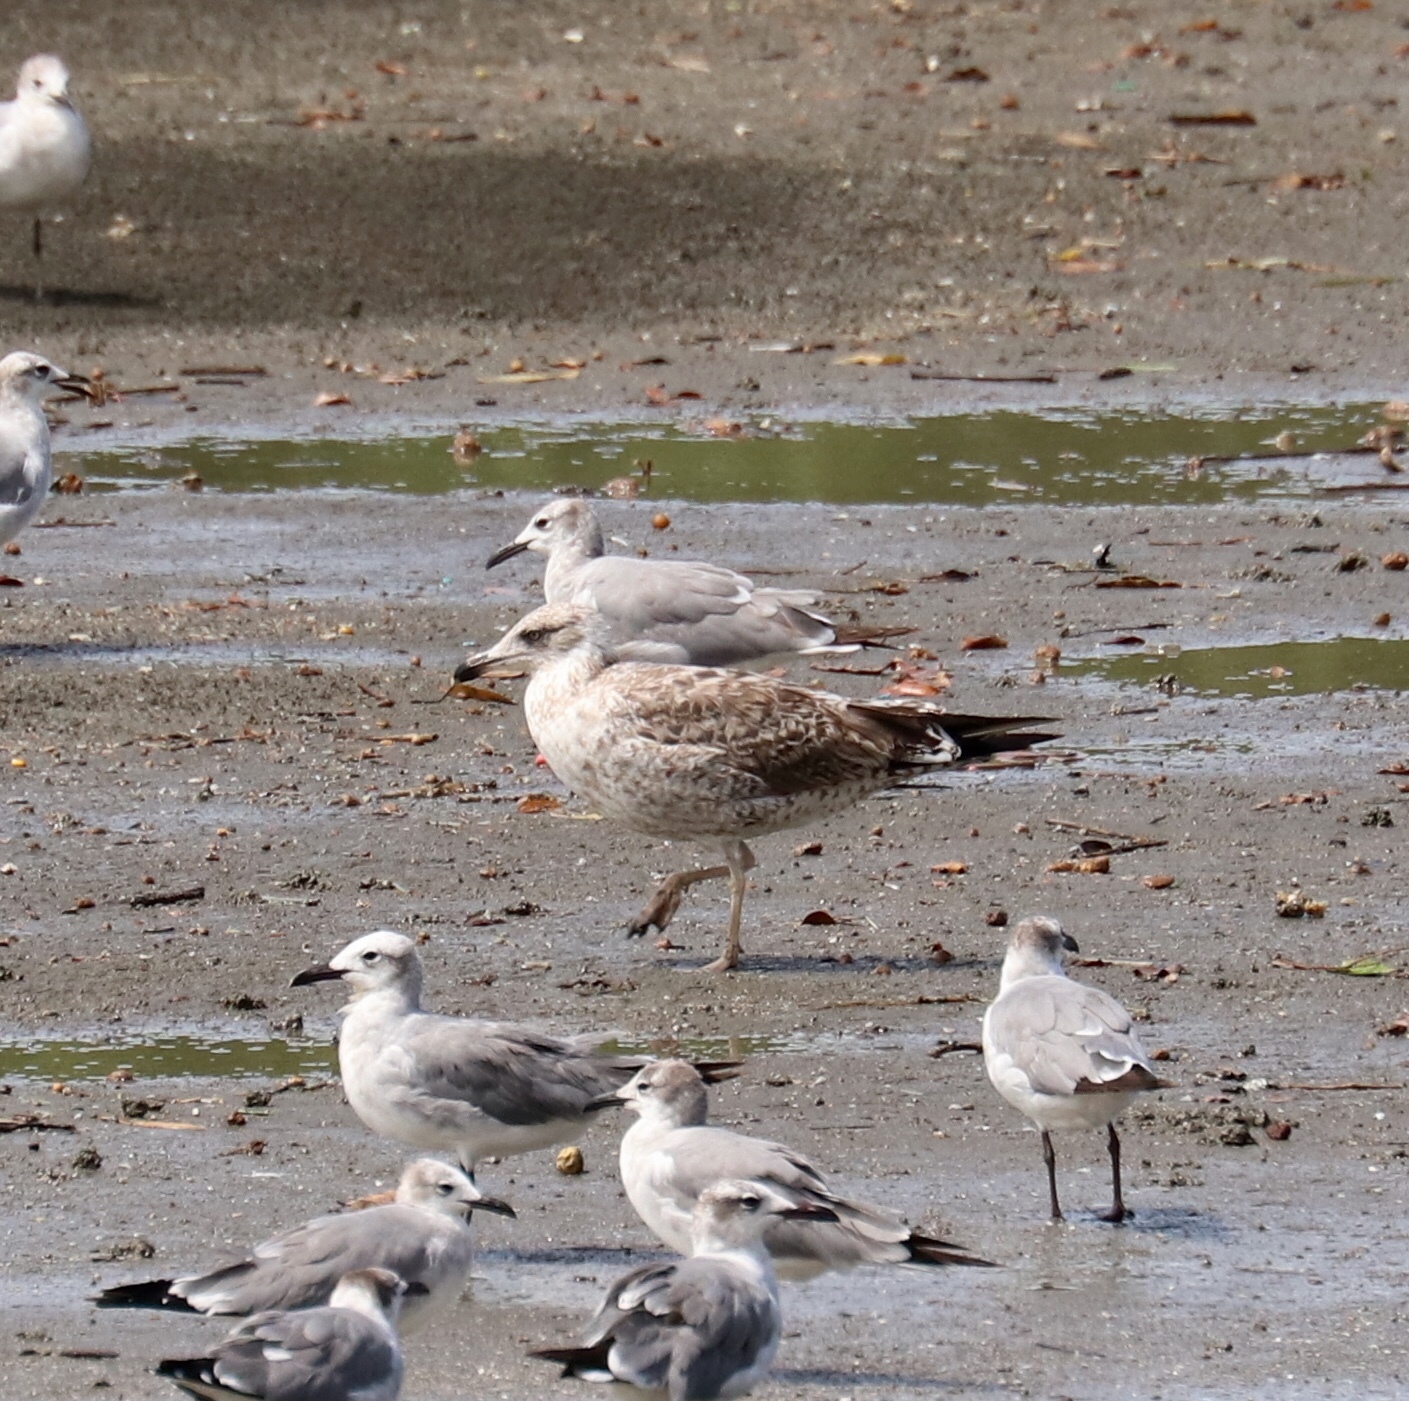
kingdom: Animalia
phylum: Chordata
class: Aves
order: Charadriiformes
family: Laridae
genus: Larus
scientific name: Larus dominicanus
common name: Kelp gull
